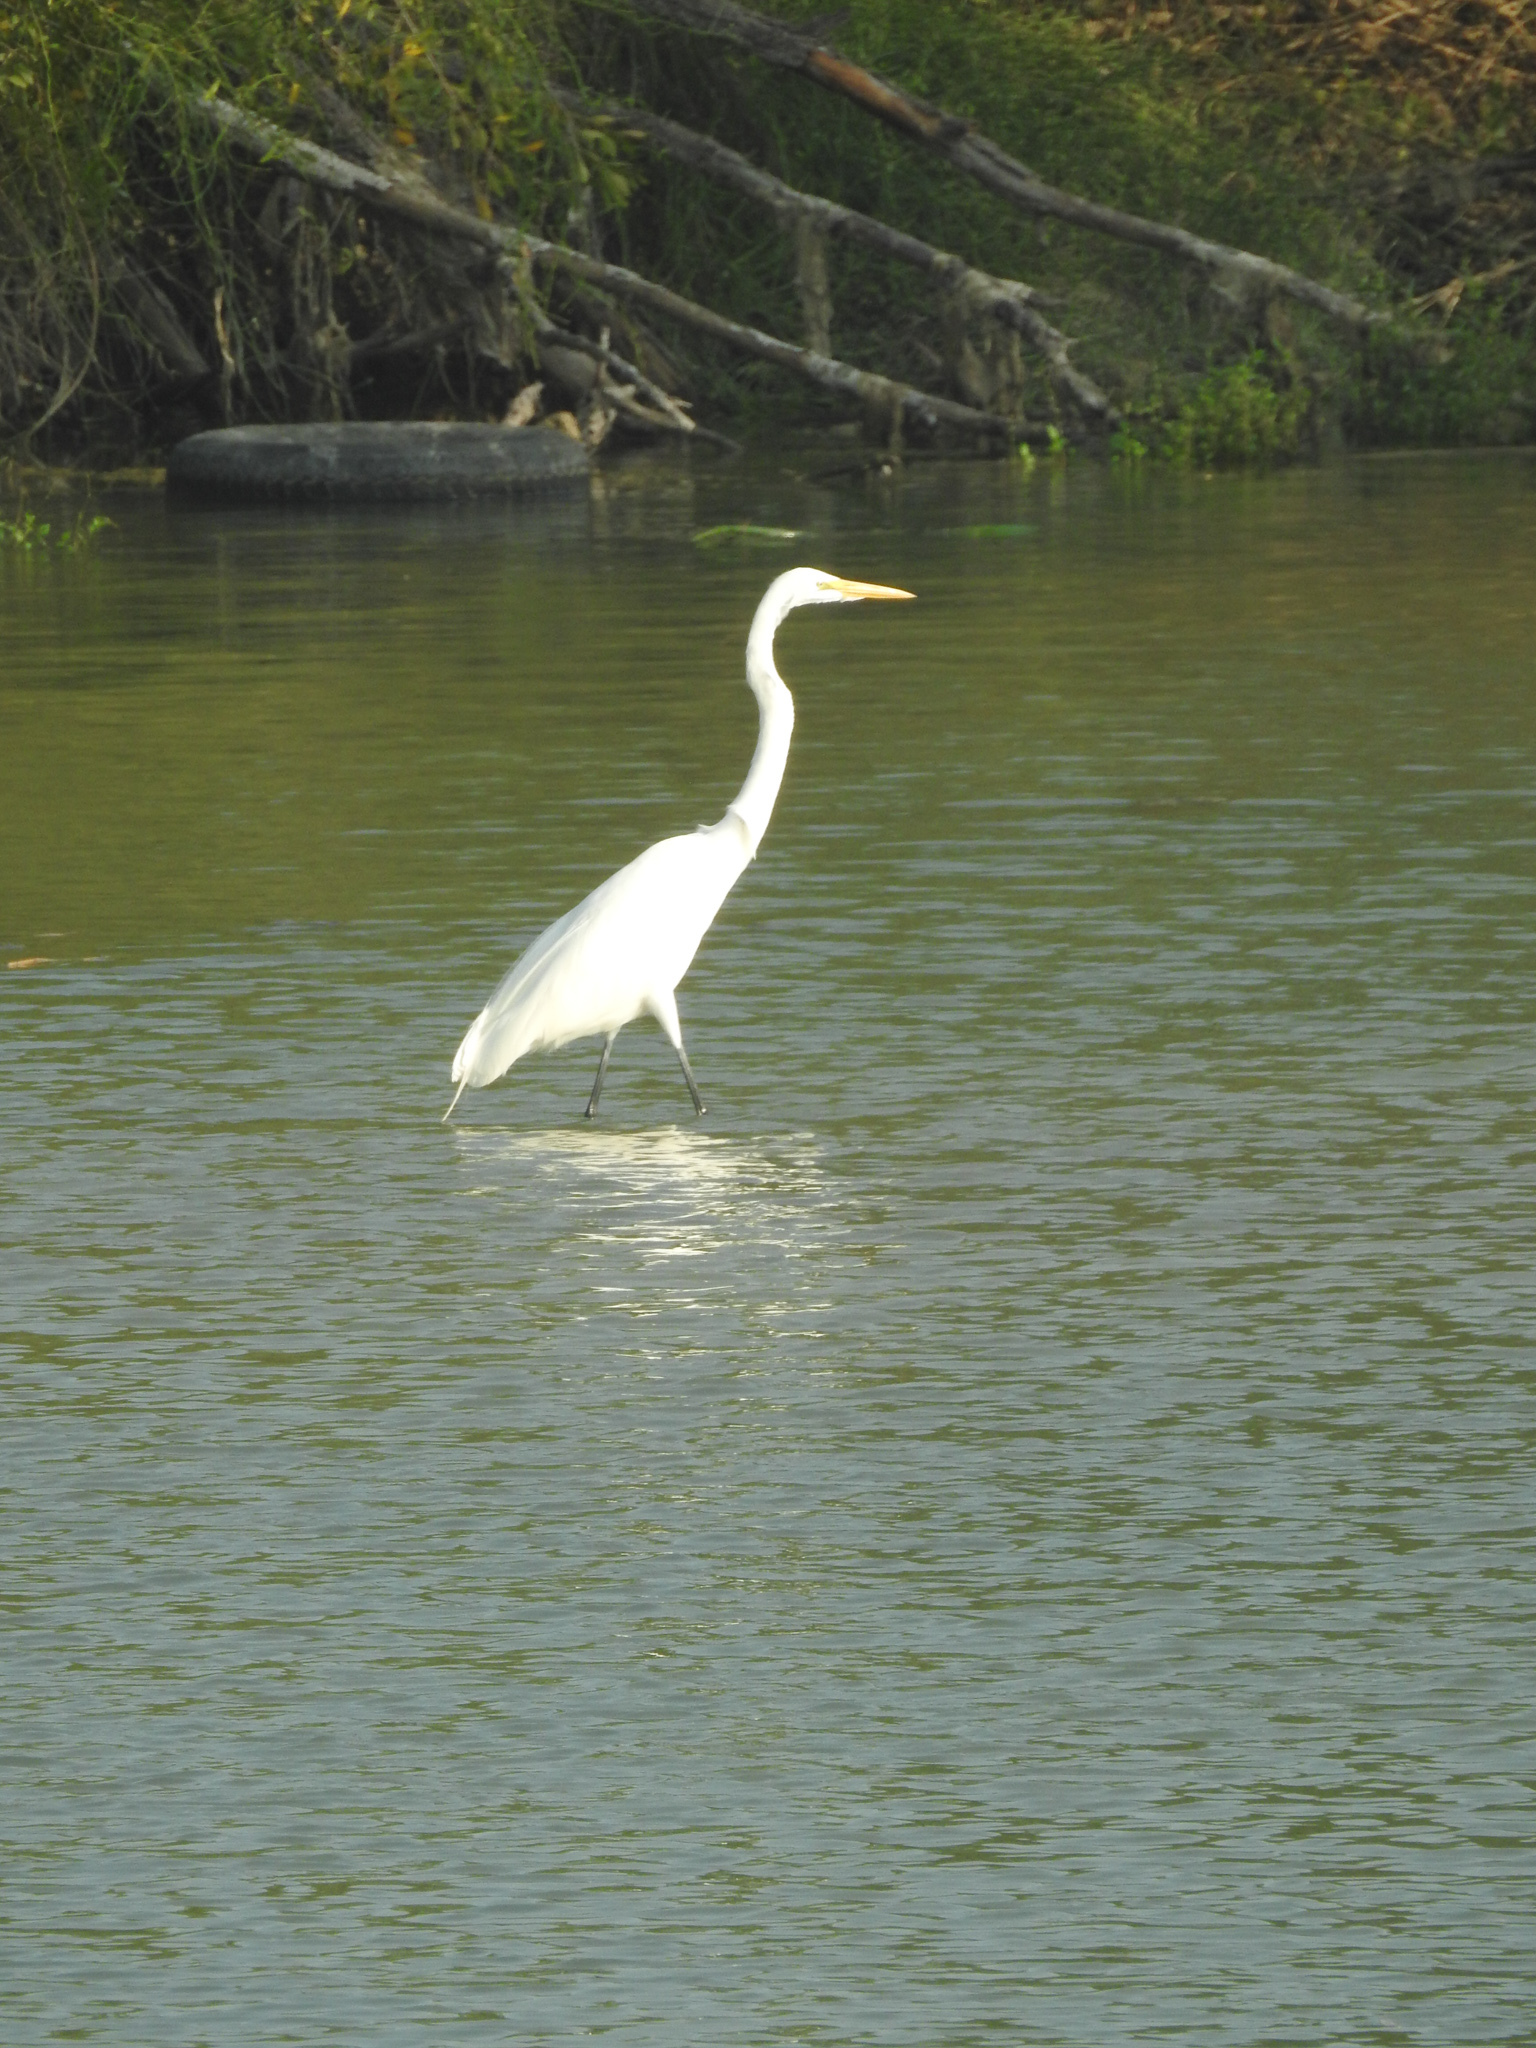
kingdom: Animalia
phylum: Chordata
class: Aves
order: Pelecaniformes
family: Ardeidae
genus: Ardea
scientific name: Ardea alba
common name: Great egret
